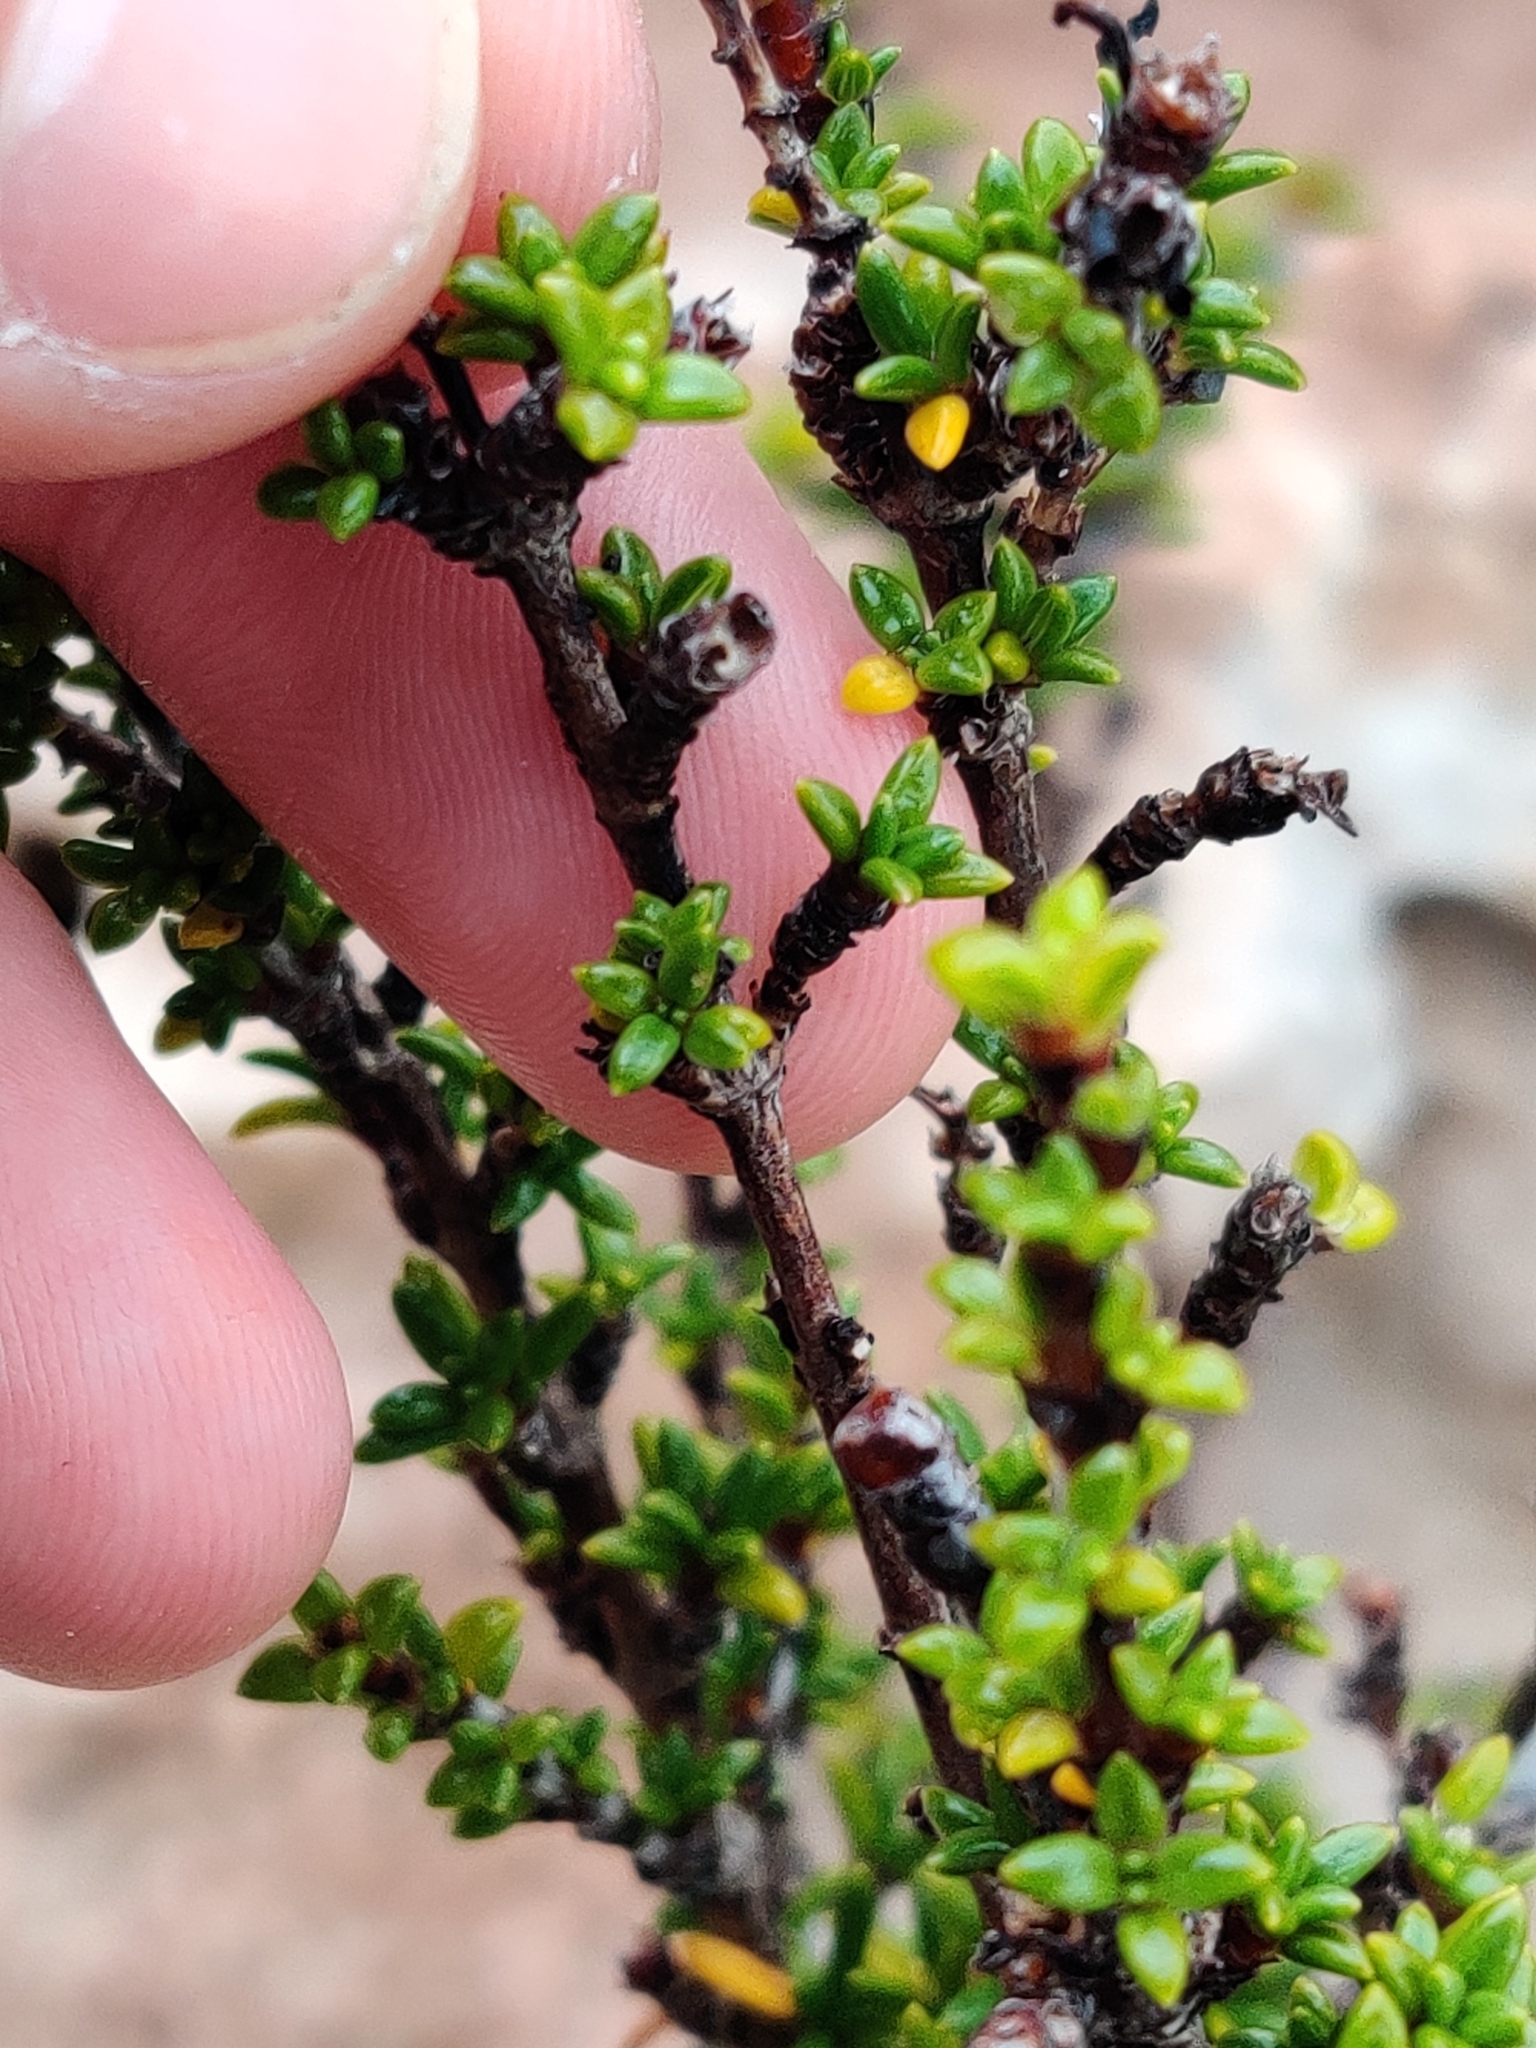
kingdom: Plantae
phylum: Tracheophyta
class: Magnoliopsida
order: Gentianales
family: Rubiaceae
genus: Rachicallis
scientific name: Rachicallis americana
